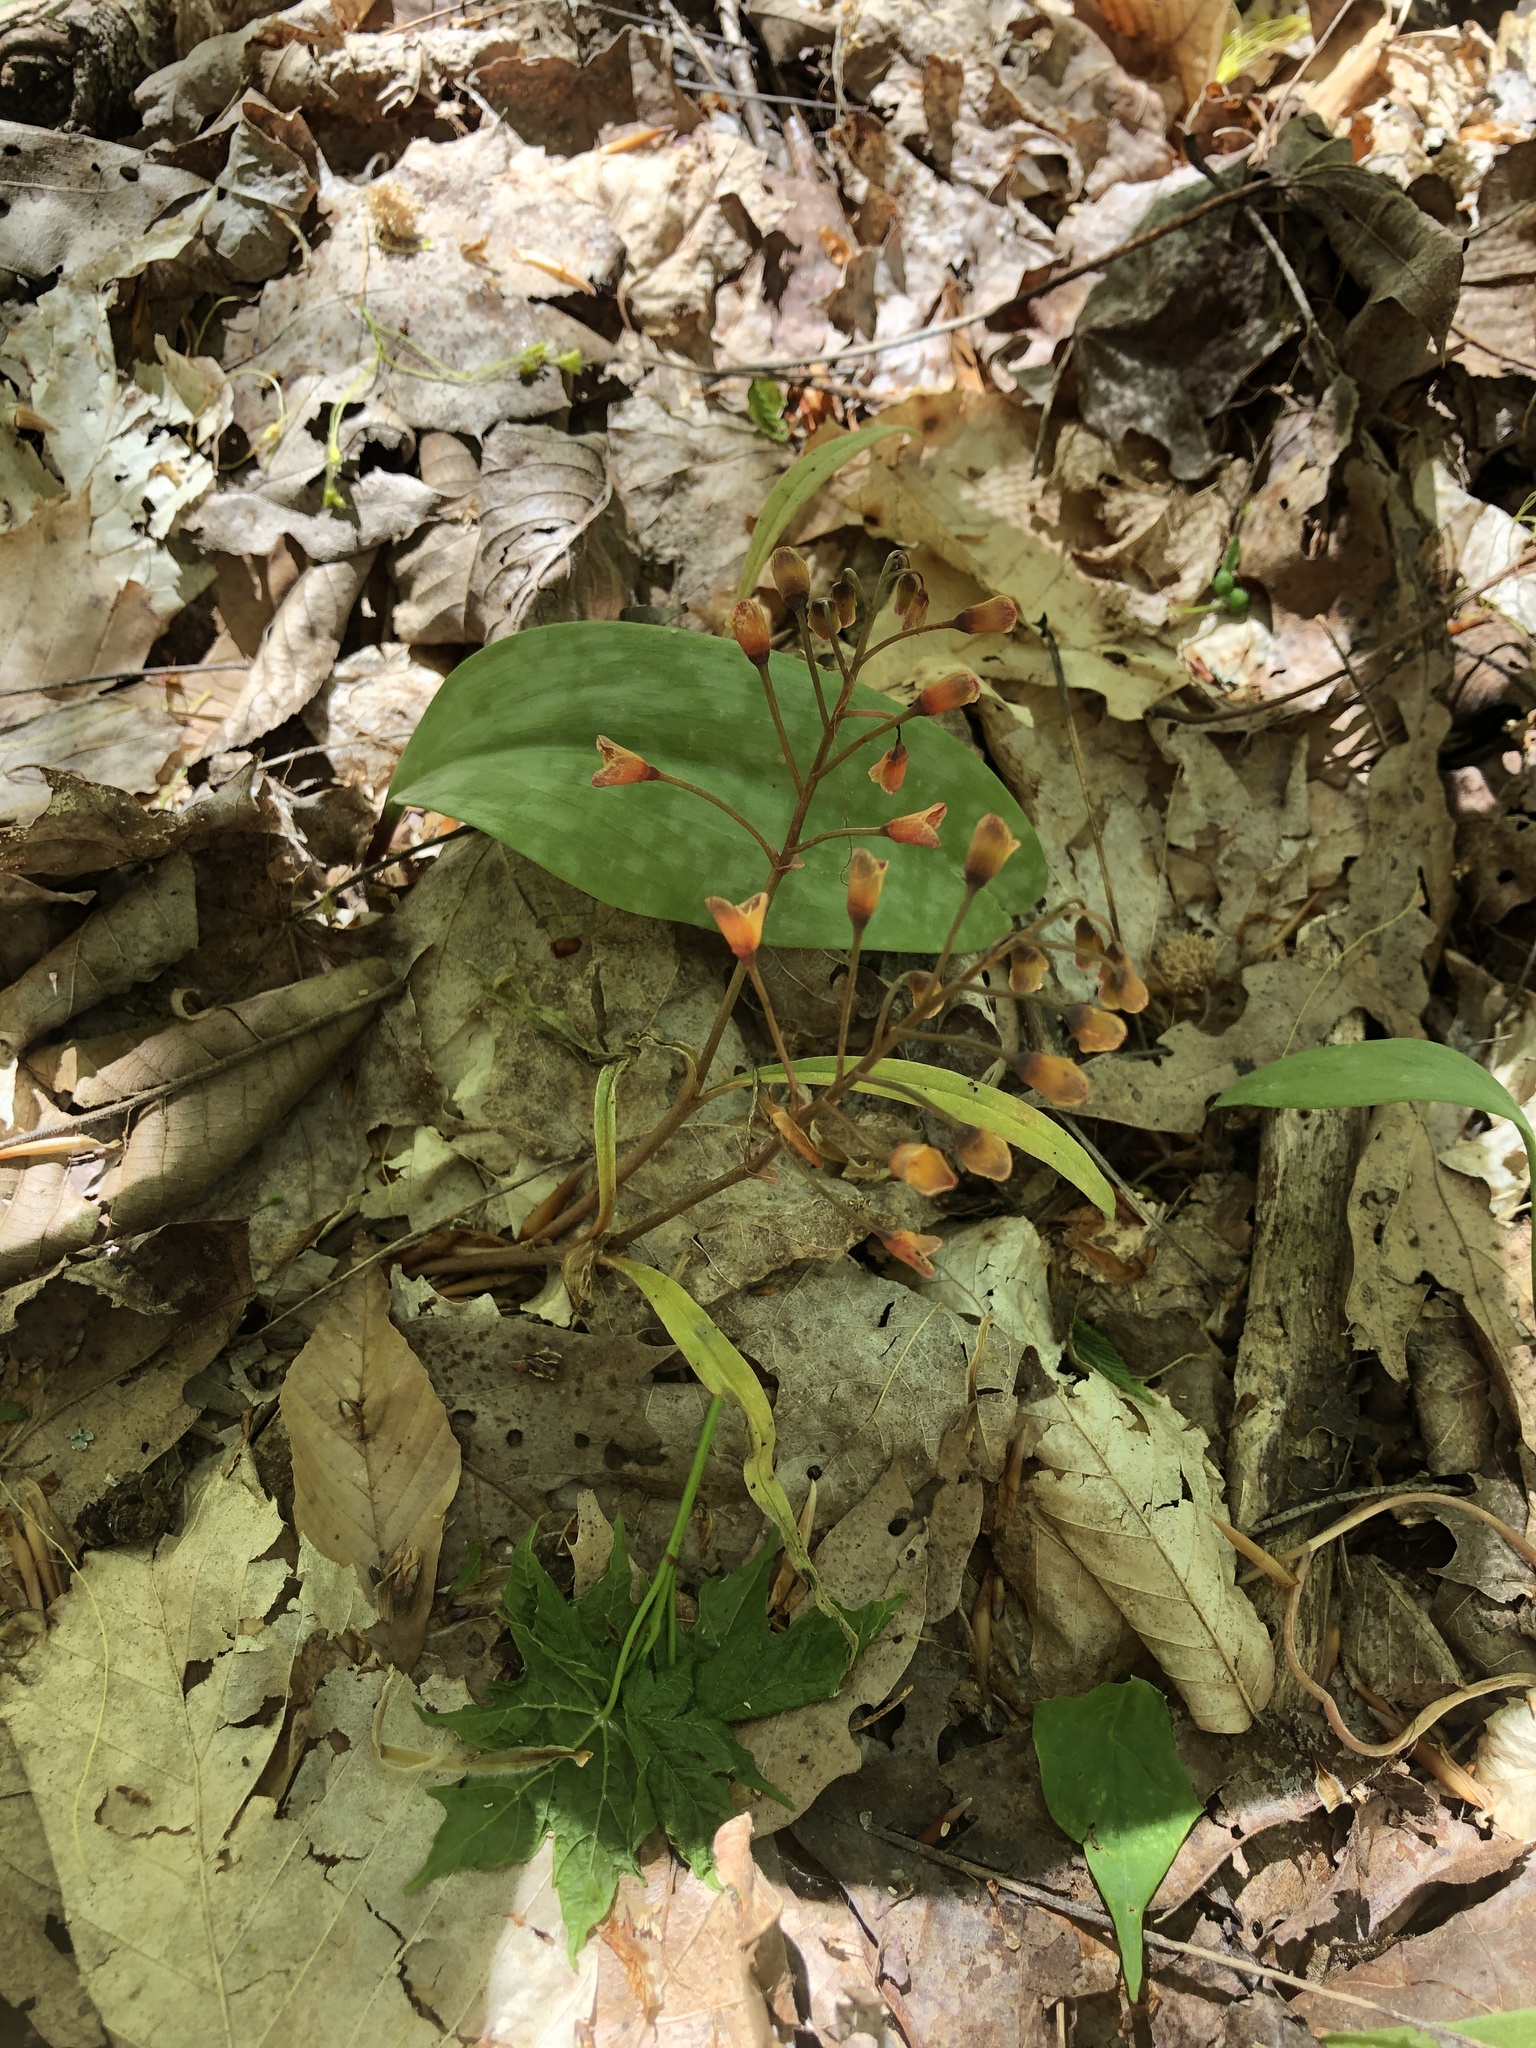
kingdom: Plantae
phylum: Tracheophyta
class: Magnoliopsida
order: Caryophyllales
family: Montiaceae
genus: Claytonia
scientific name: Claytonia virginica
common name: Virginia springbeauty
